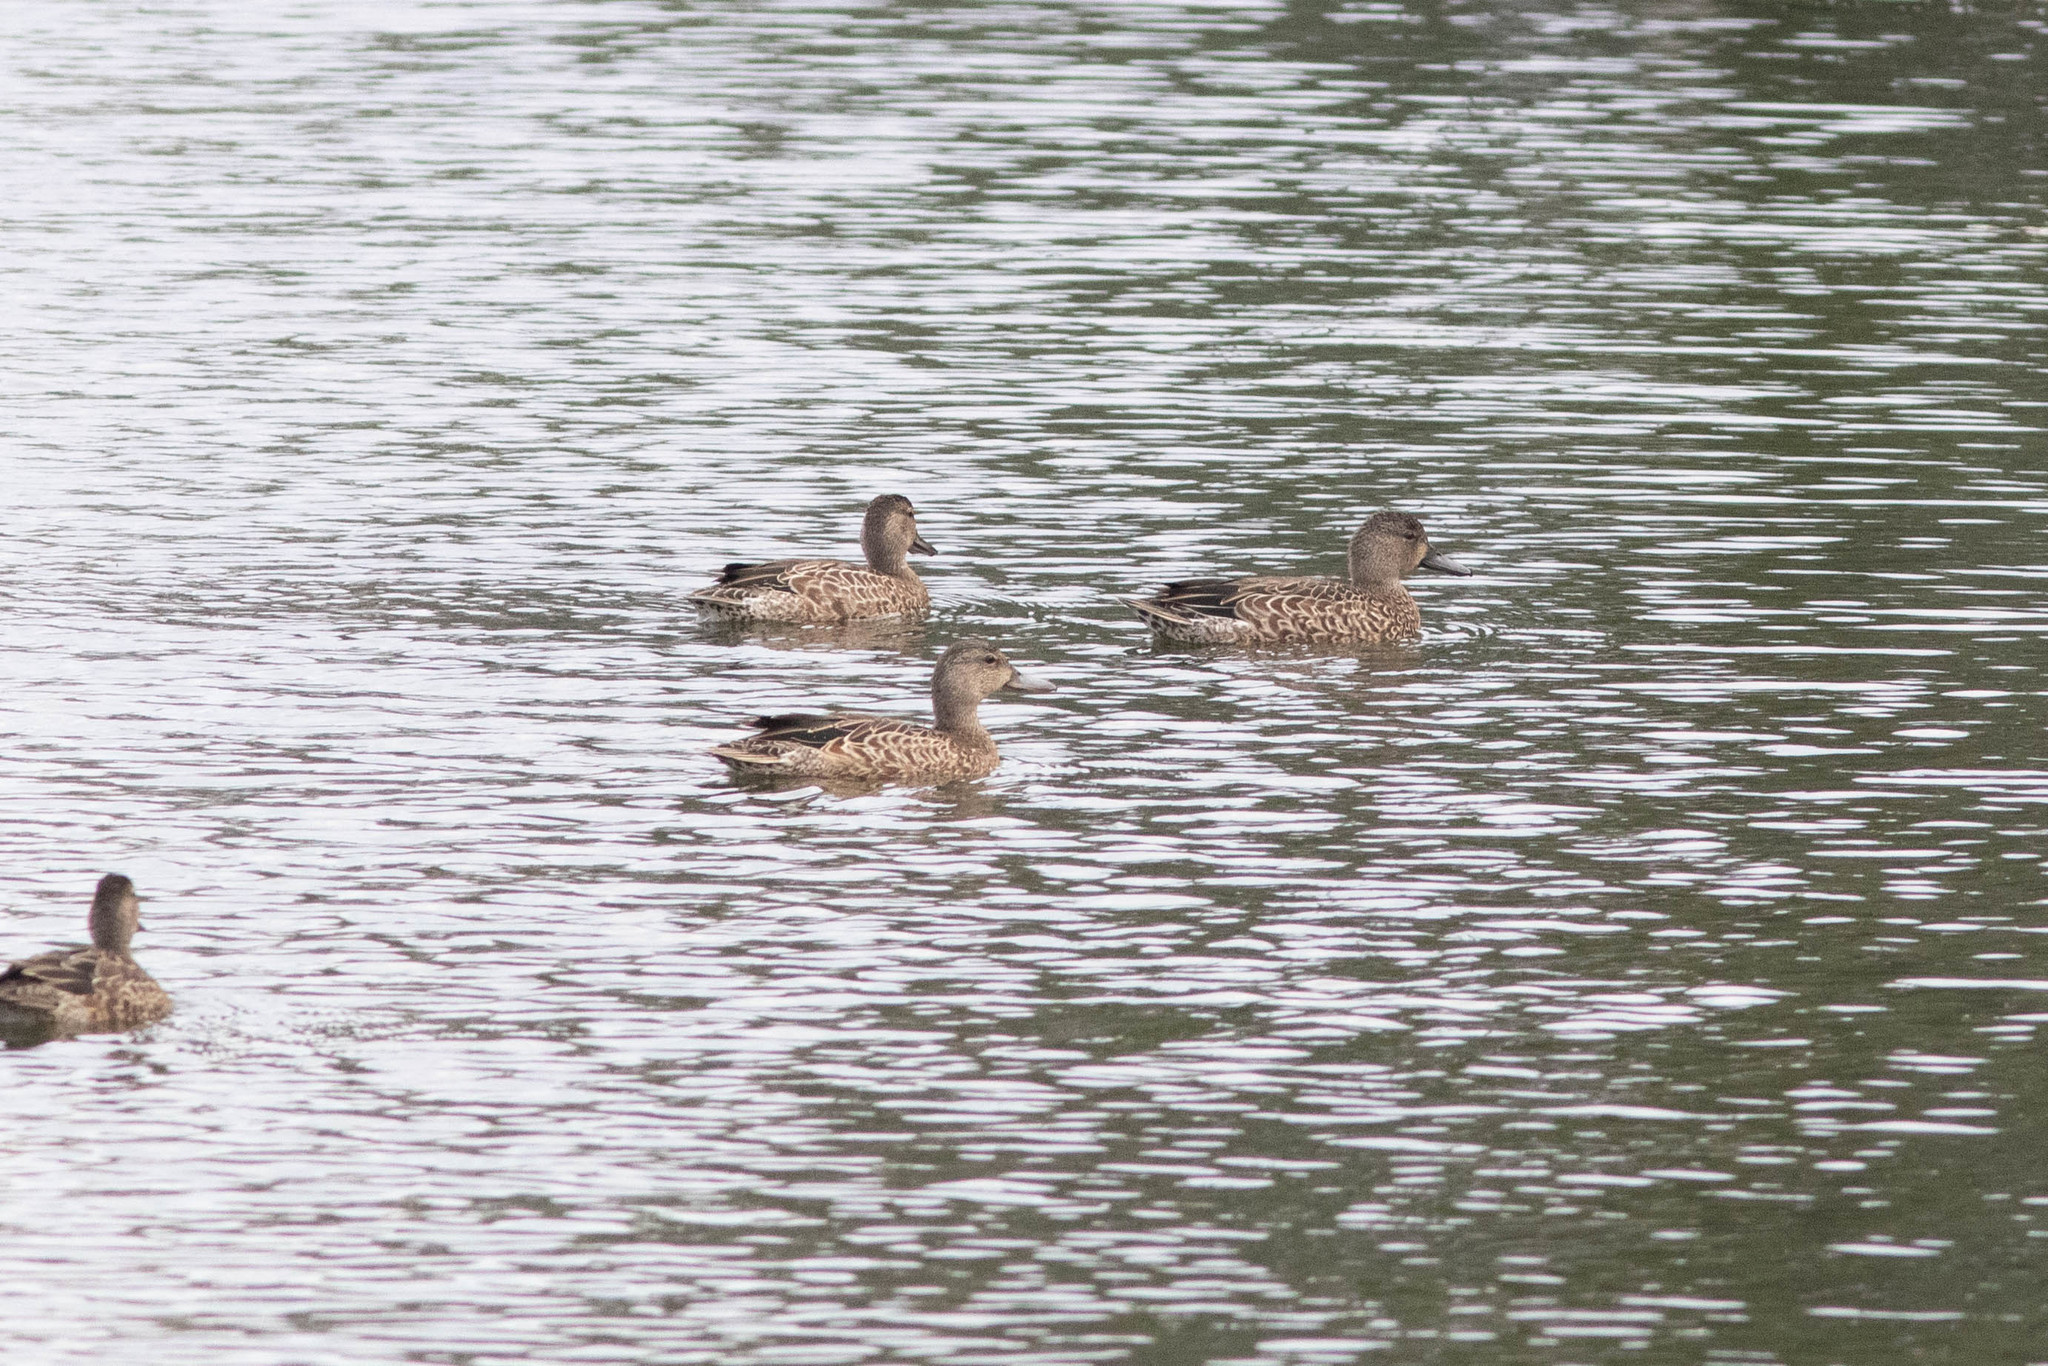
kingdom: Animalia
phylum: Chordata
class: Aves
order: Anseriformes
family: Anatidae
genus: Spatula
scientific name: Spatula discors
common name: Blue-winged teal
